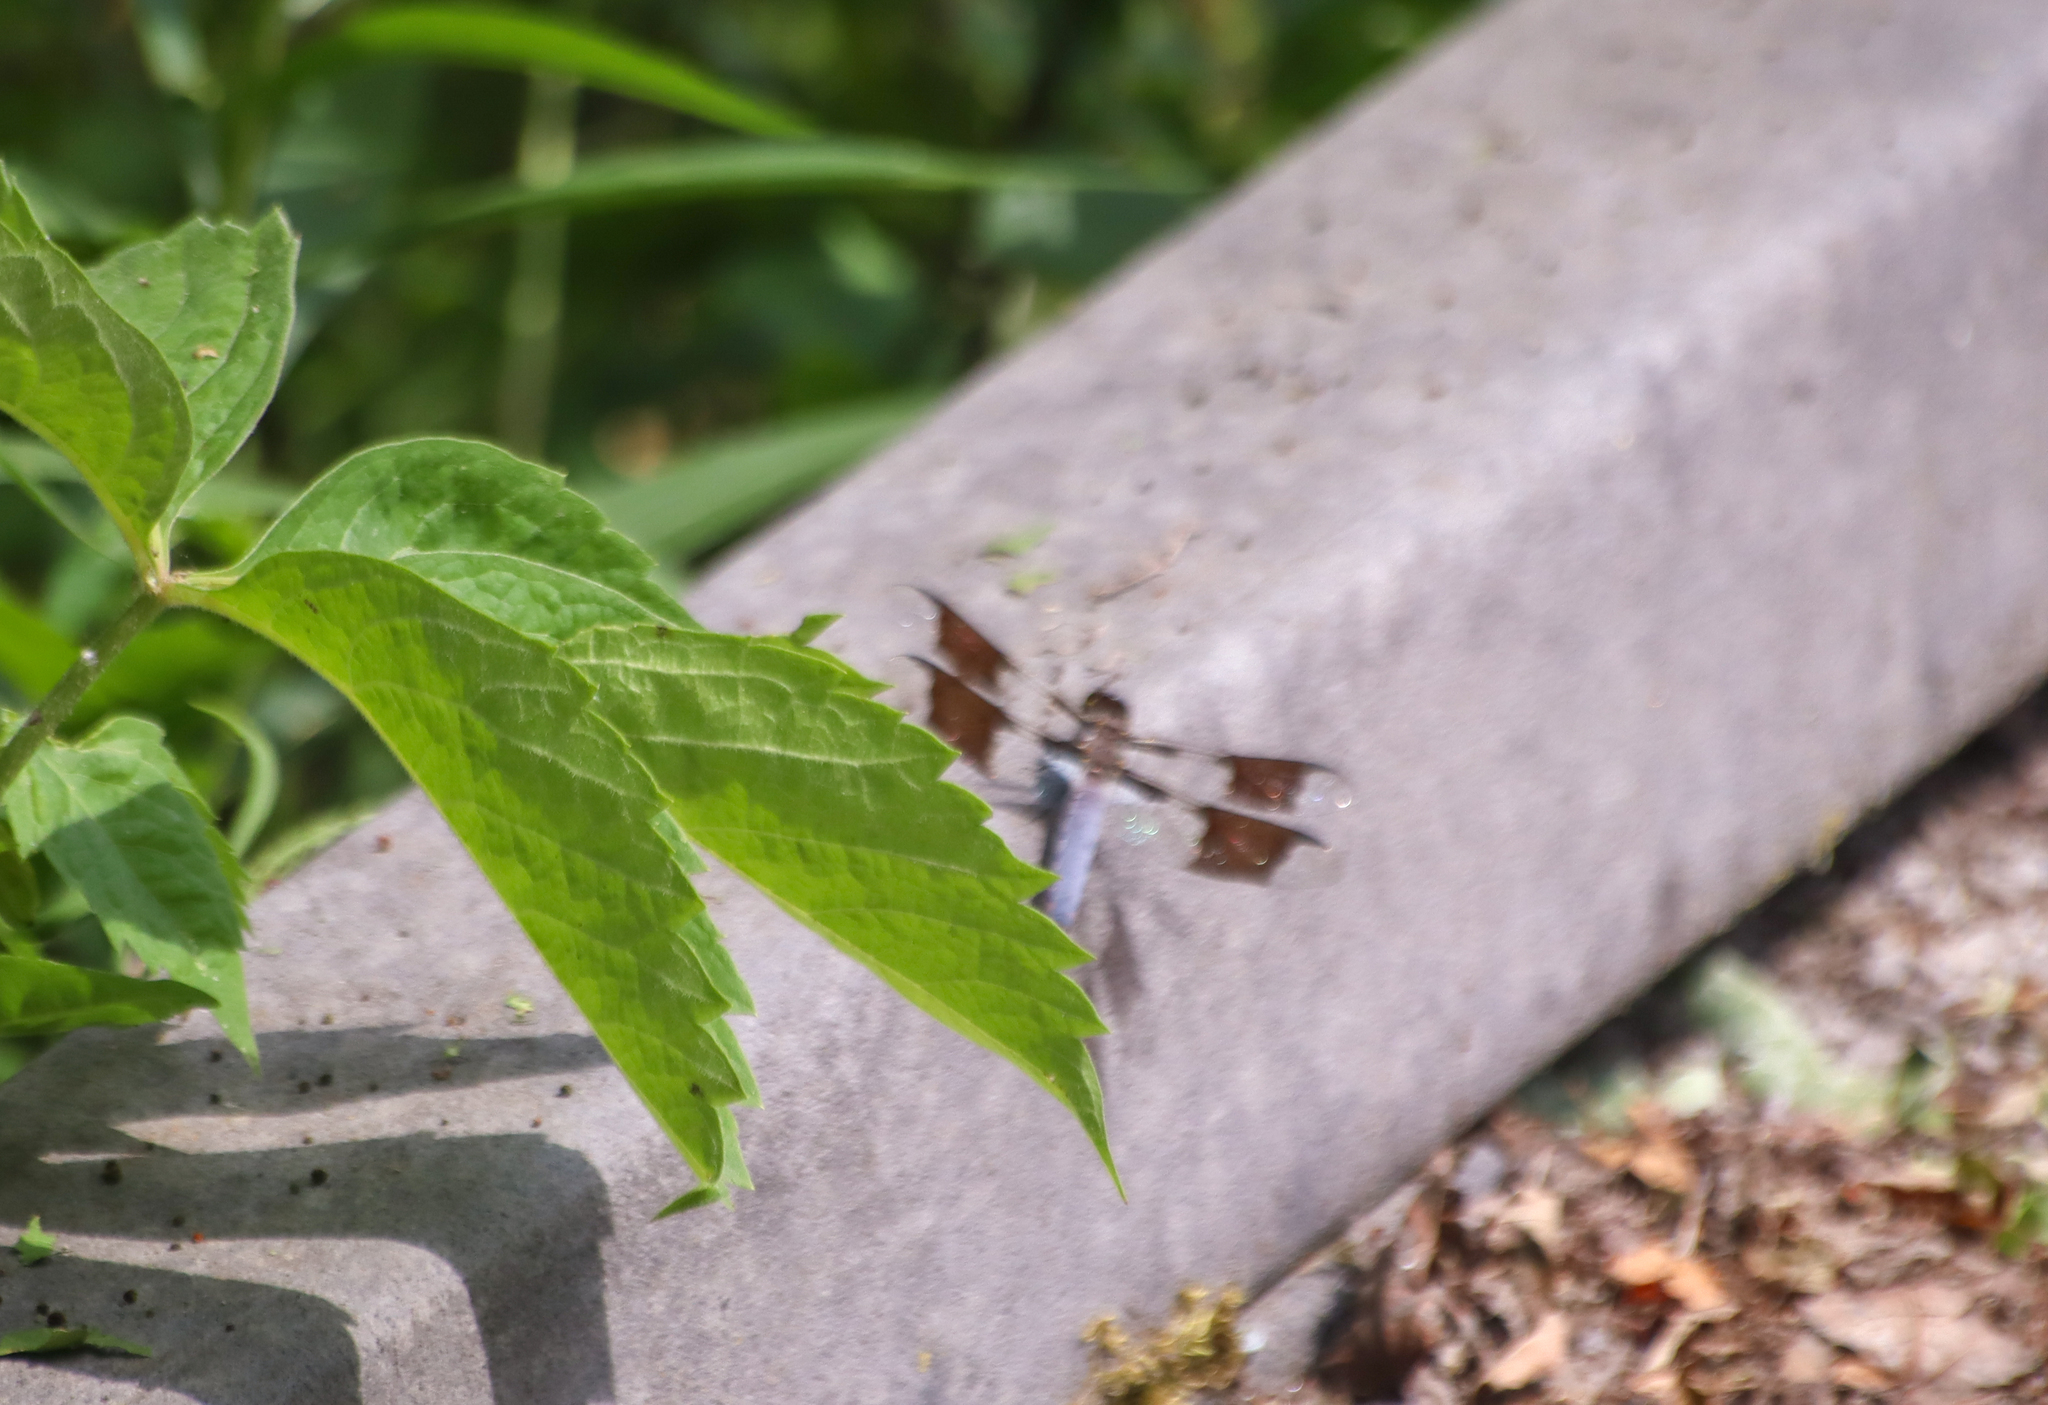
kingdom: Animalia
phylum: Arthropoda
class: Insecta
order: Odonata
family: Libellulidae
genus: Plathemis
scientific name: Plathemis lydia
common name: Common whitetail
